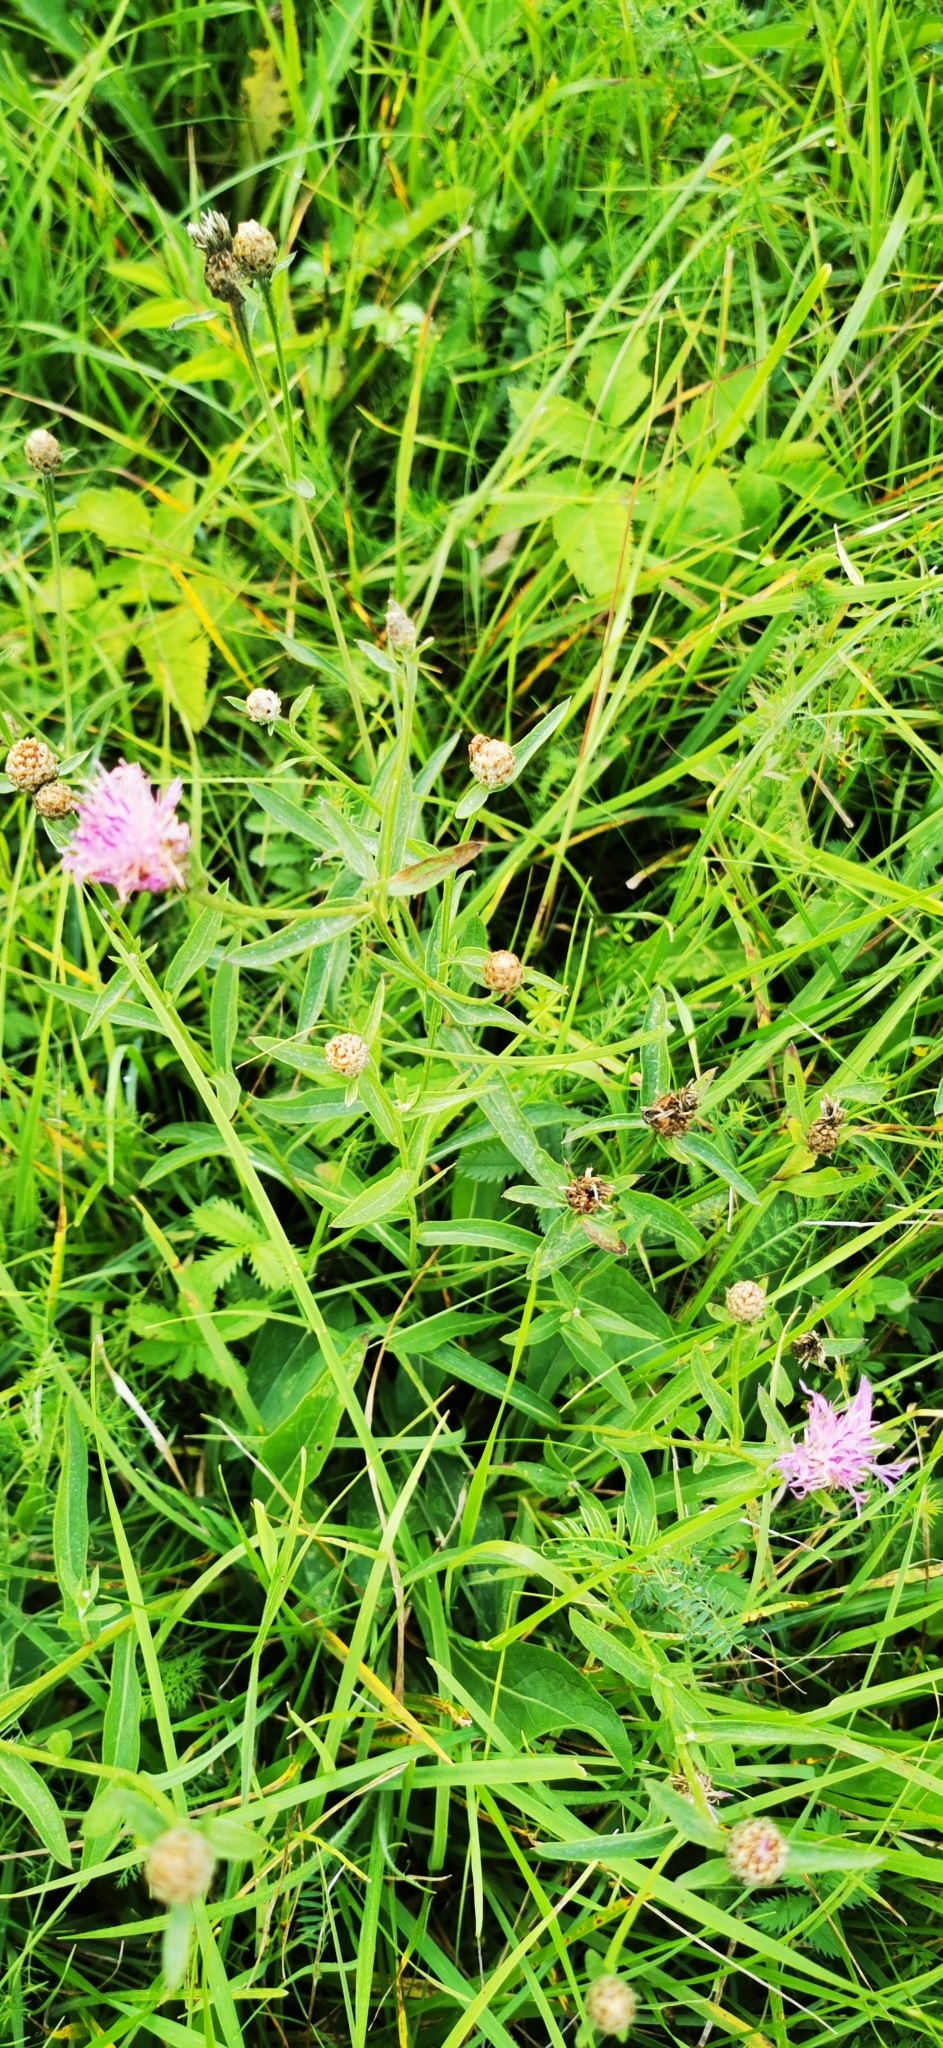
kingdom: Plantae
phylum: Tracheophyta
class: Magnoliopsida
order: Asterales
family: Asteraceae
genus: Centaurea
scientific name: Centaurea jacea
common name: Brown knapweed
